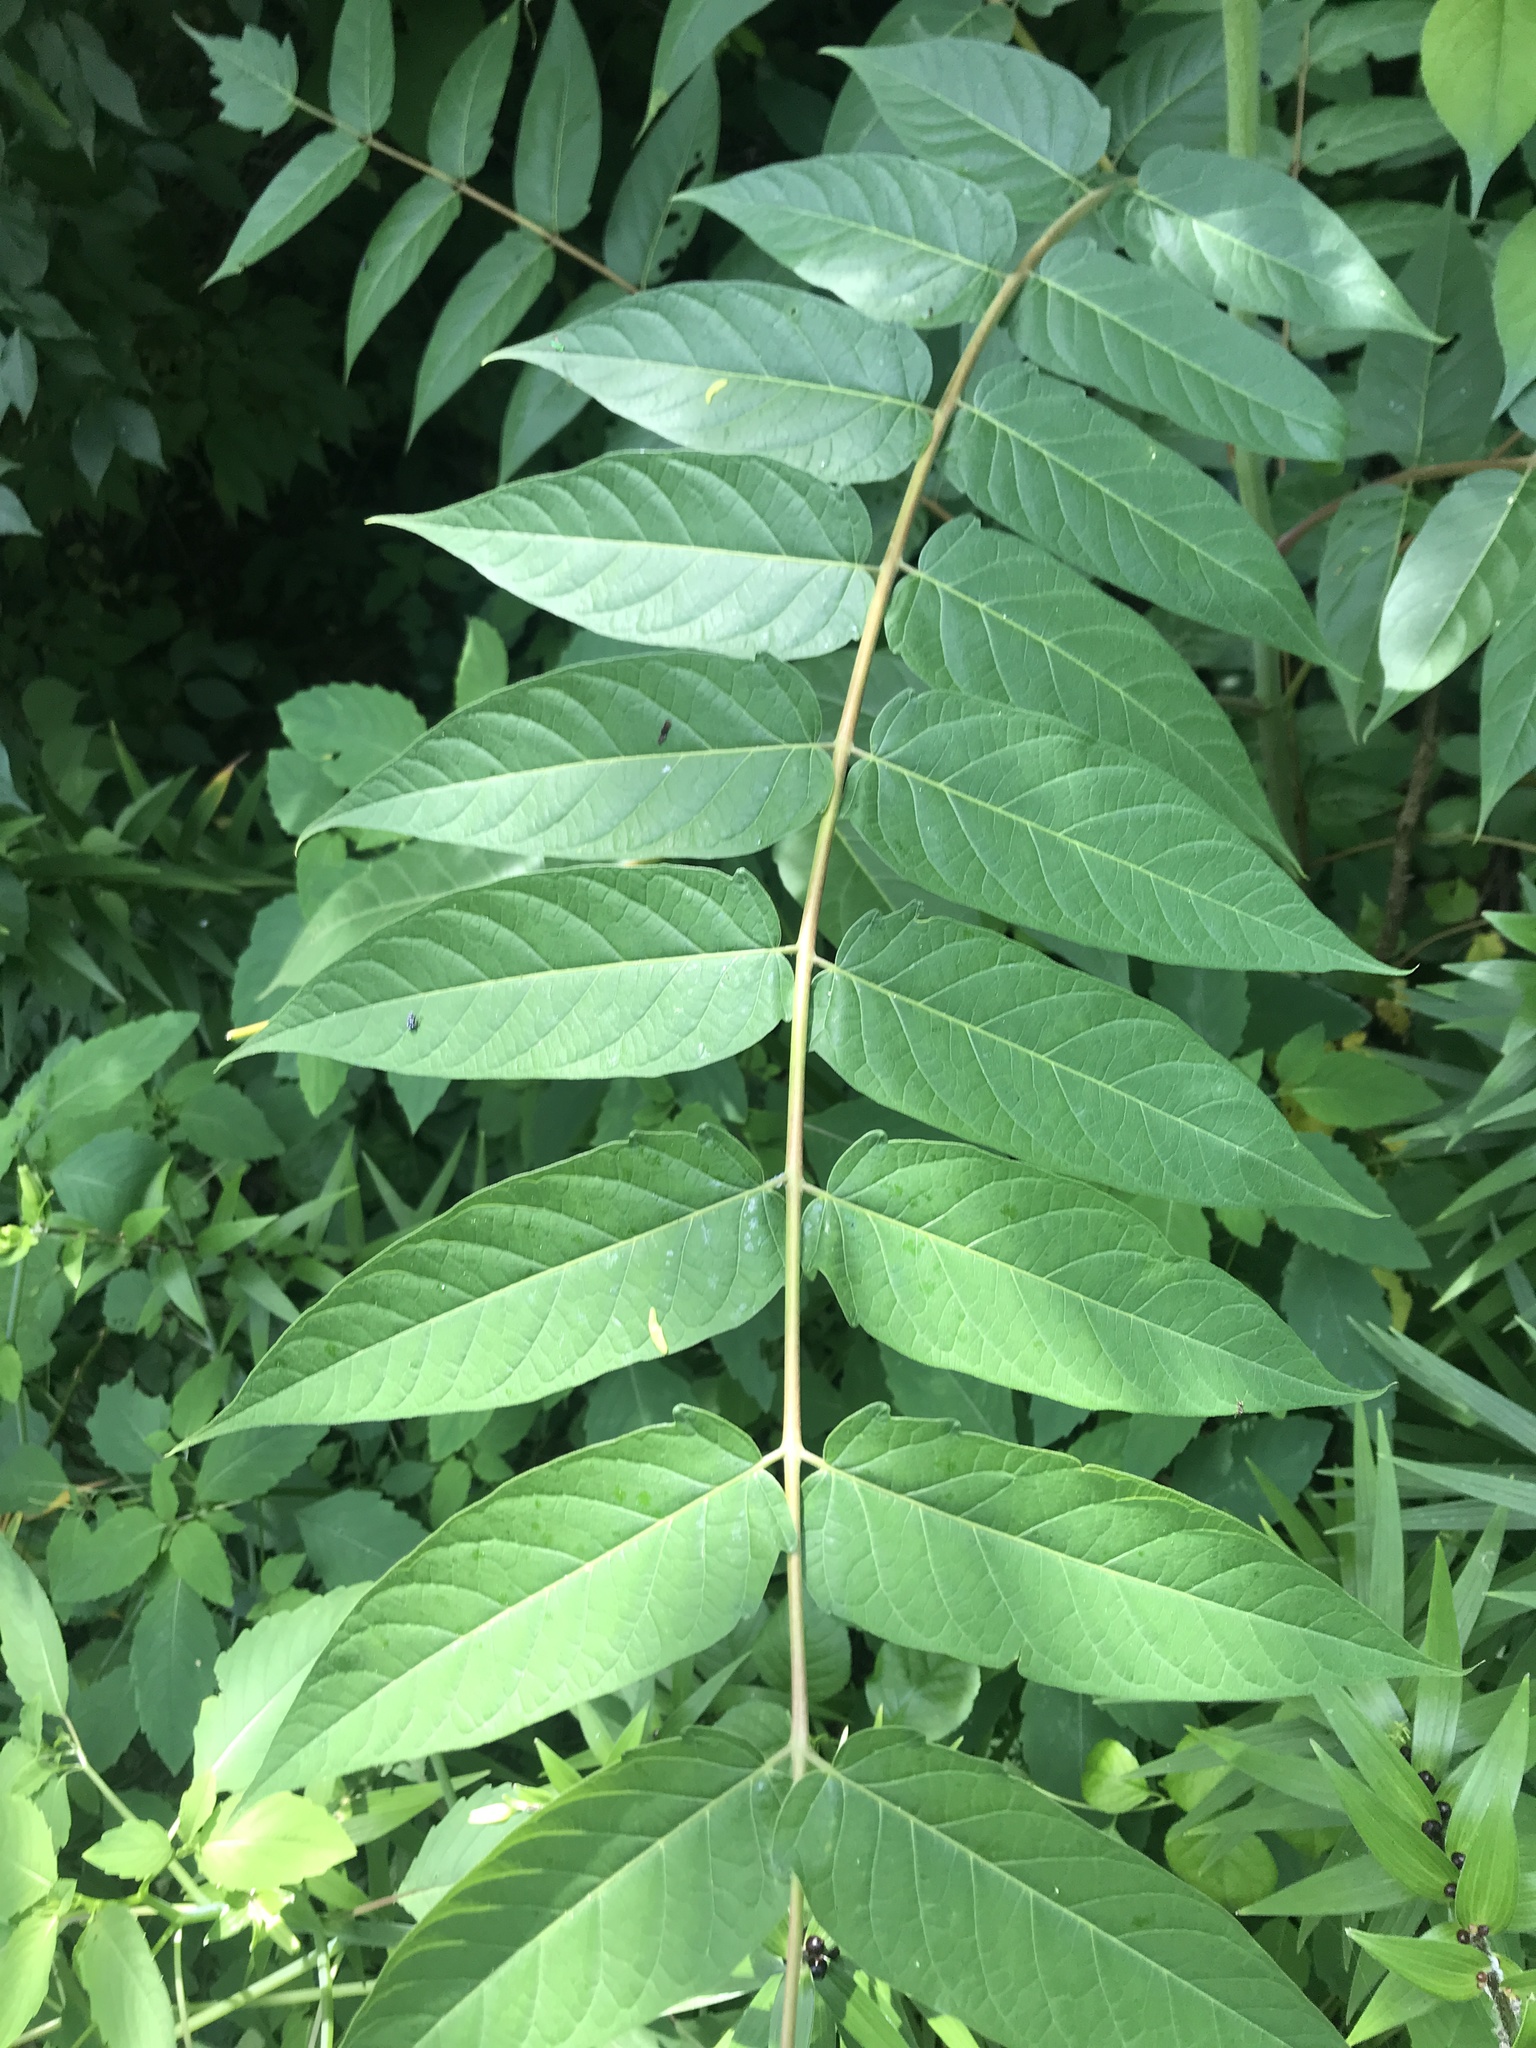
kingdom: Plantae
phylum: Tracheophyta
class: Magnoliopsida
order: Sapindales
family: Simaroubaceae
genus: Ailanthus
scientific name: Ailanthus altissima
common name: Tree-of-heaven
